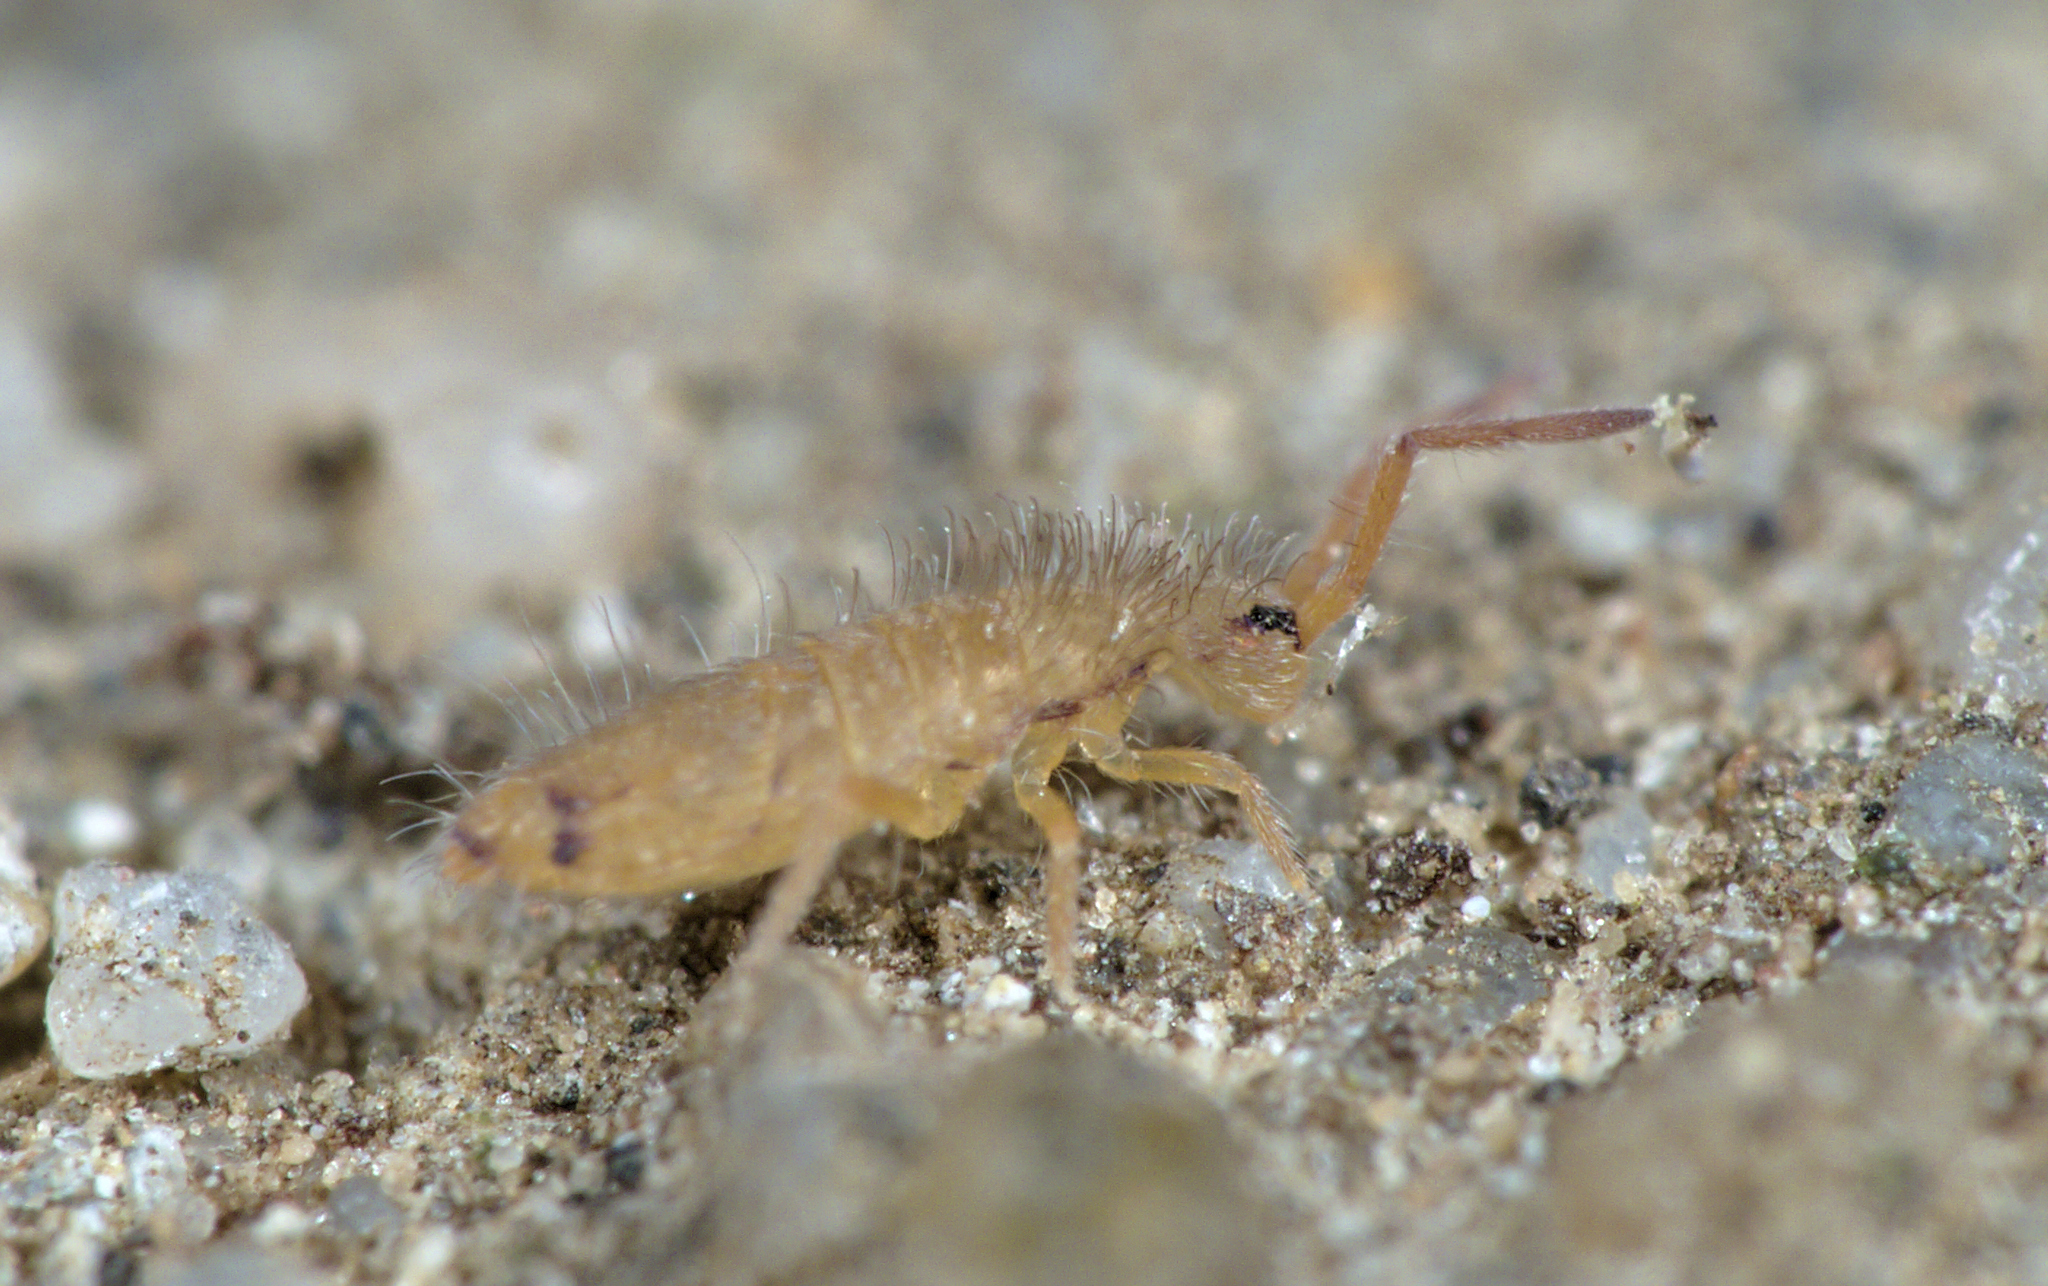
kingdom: Animalia
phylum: Arthropoda
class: Collembola
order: Entomobryomorpha
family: Entomobryidae
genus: Entomobrya
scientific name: Entomobrya nicoleti
